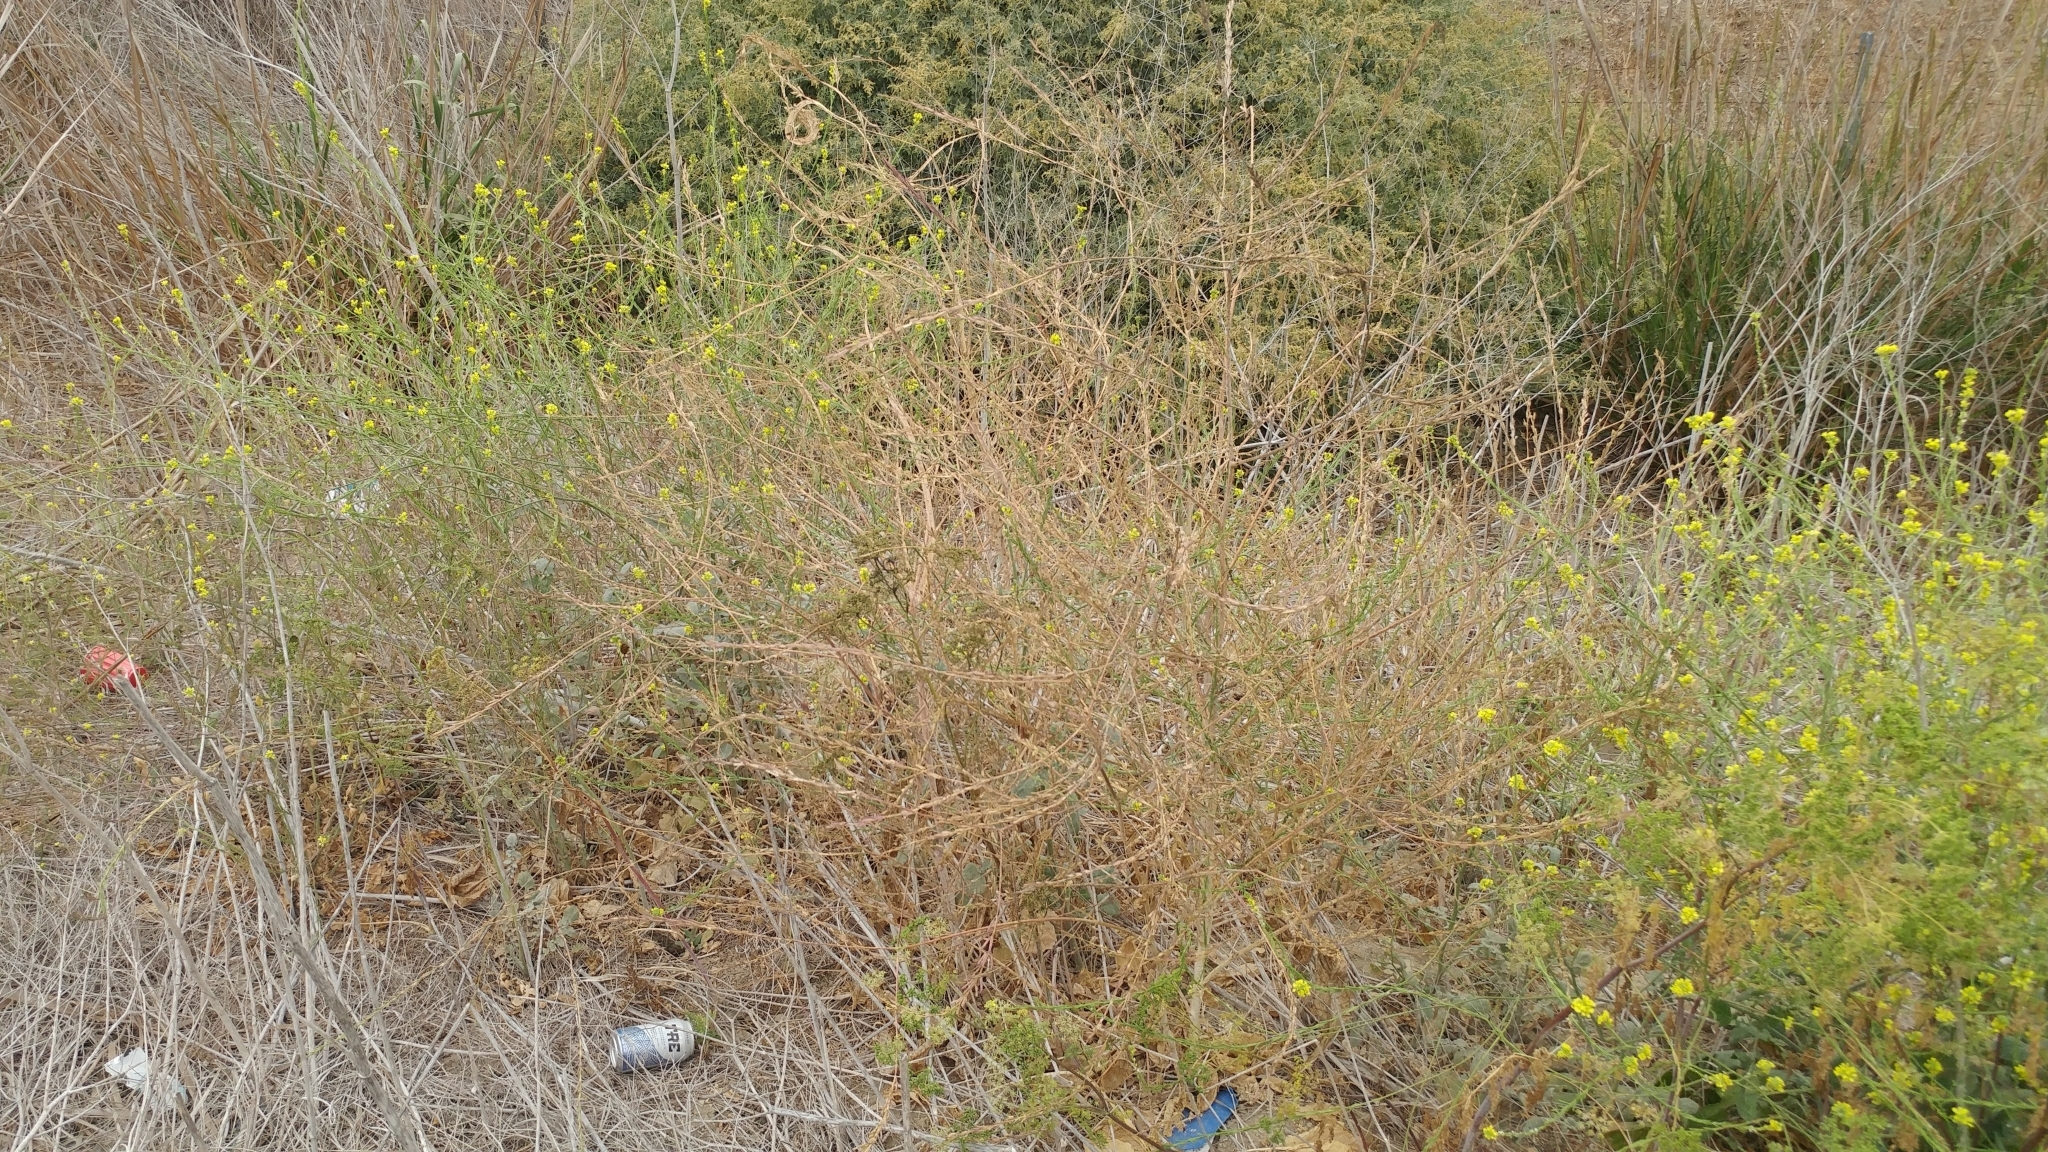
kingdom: Plantae
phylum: Tracheophyta
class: Magnoliopsida
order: Brassicales
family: Brassicaceae
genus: Hirschfeldia
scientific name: Hirschfeldia incana
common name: Hoary mustard
